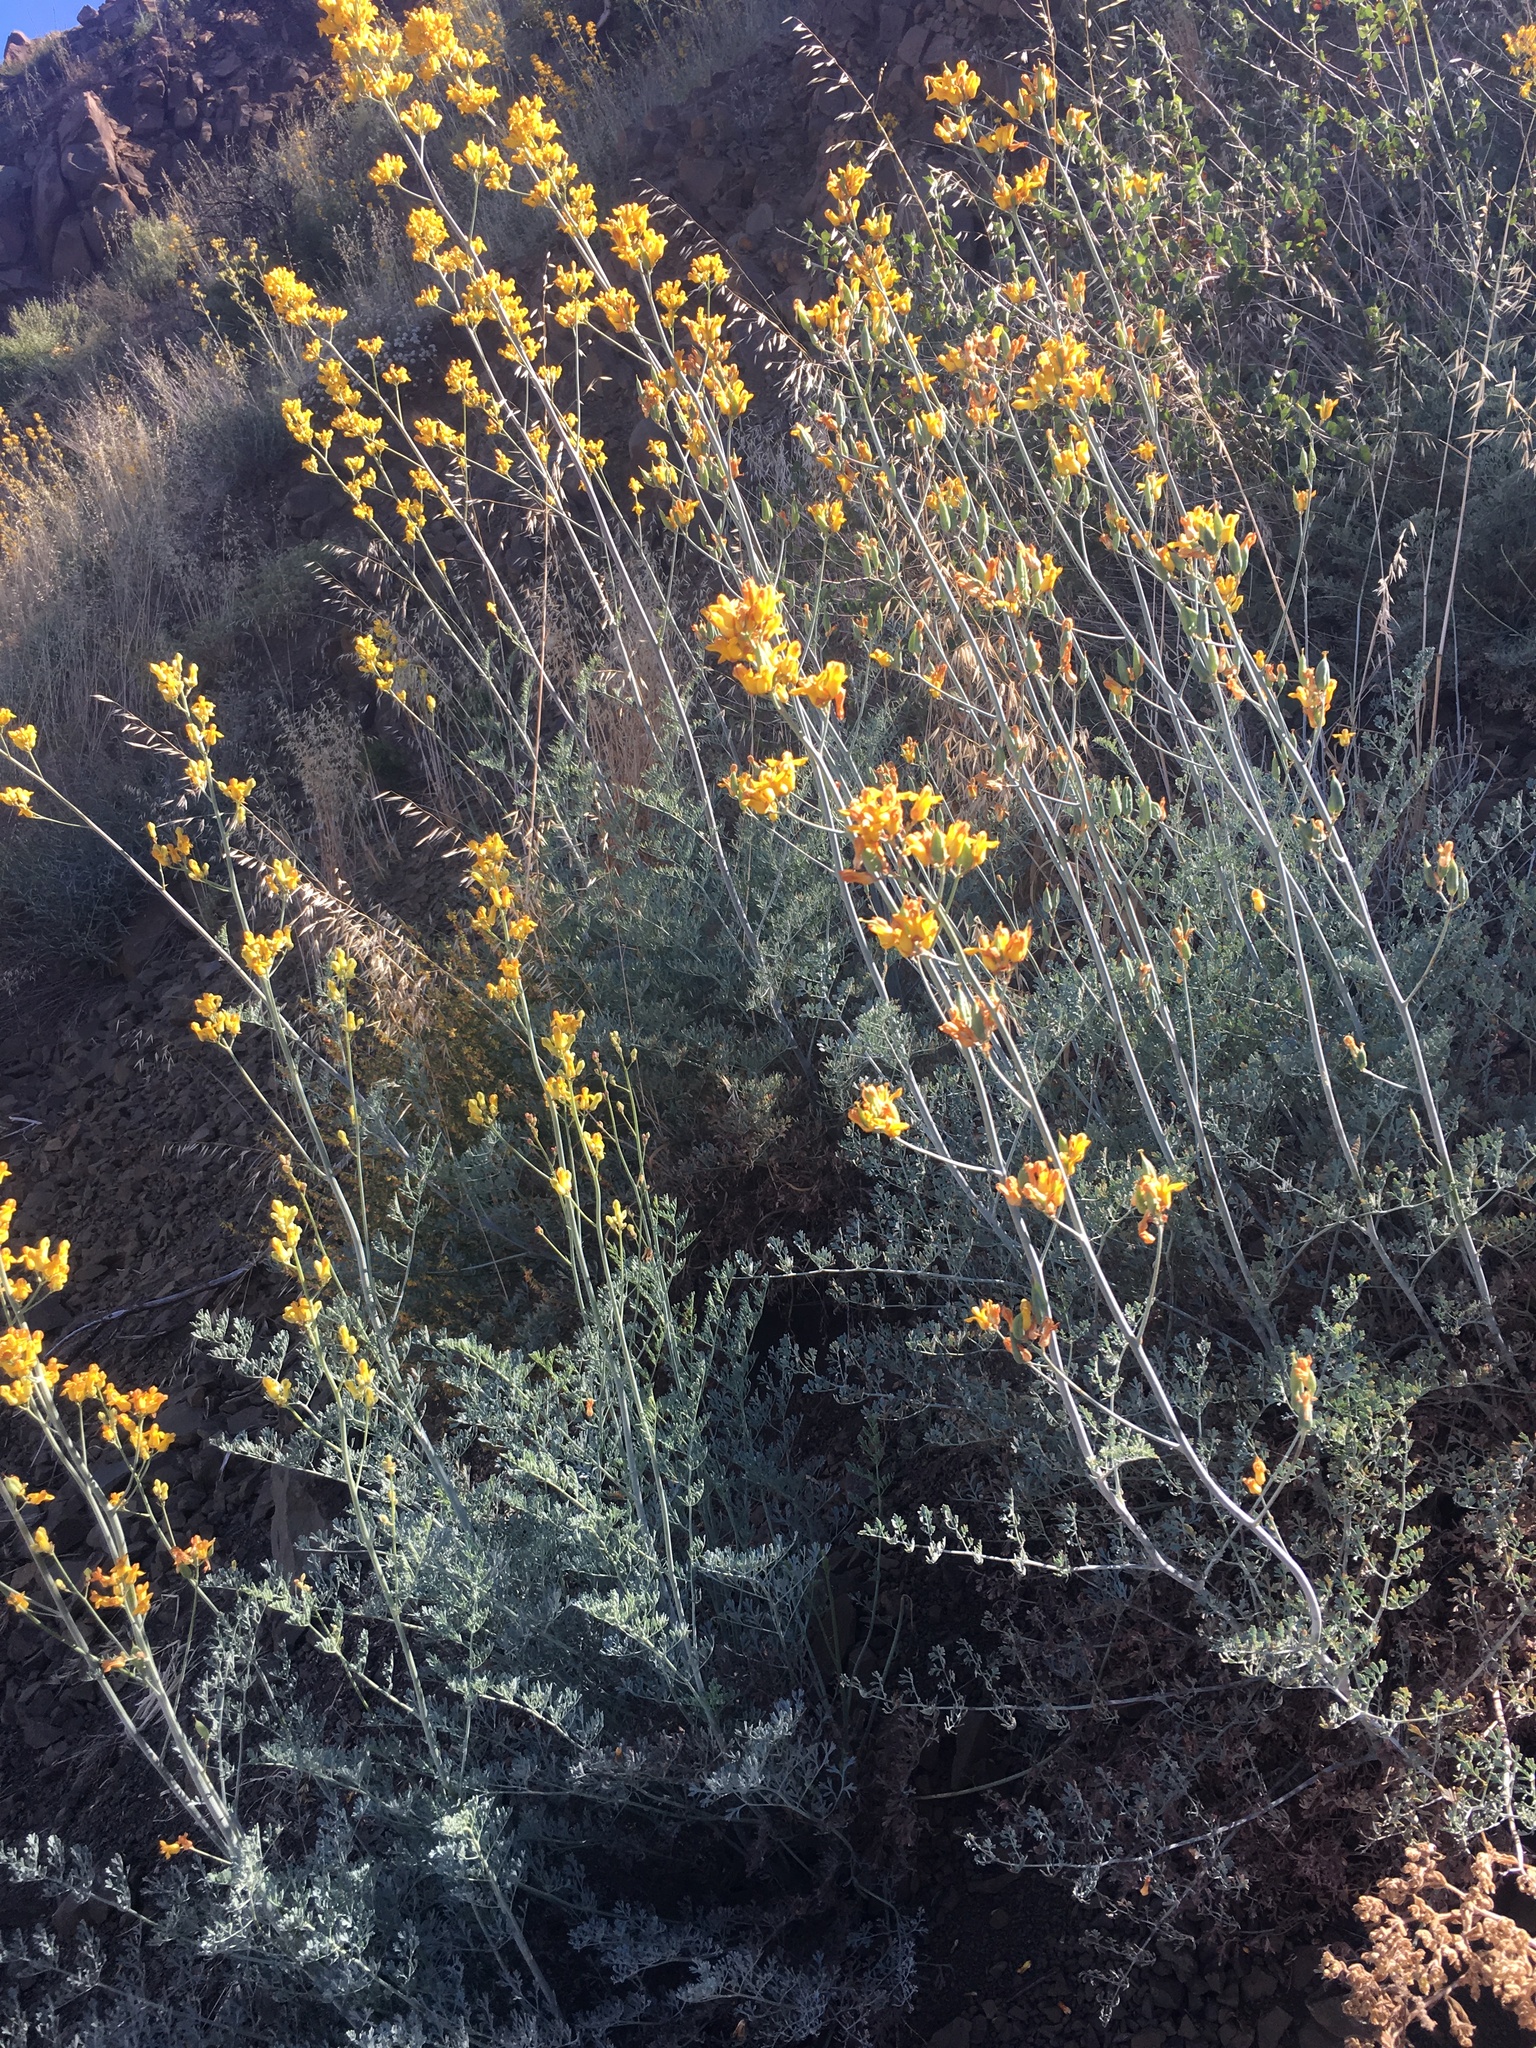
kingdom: Plantae
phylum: Tracheophyta
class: Magnoliopsida
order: Ranunculales
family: Papaveraceae
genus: Ehrendorferia
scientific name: Ehrendorferia chrysantha
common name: Golden eardrops
